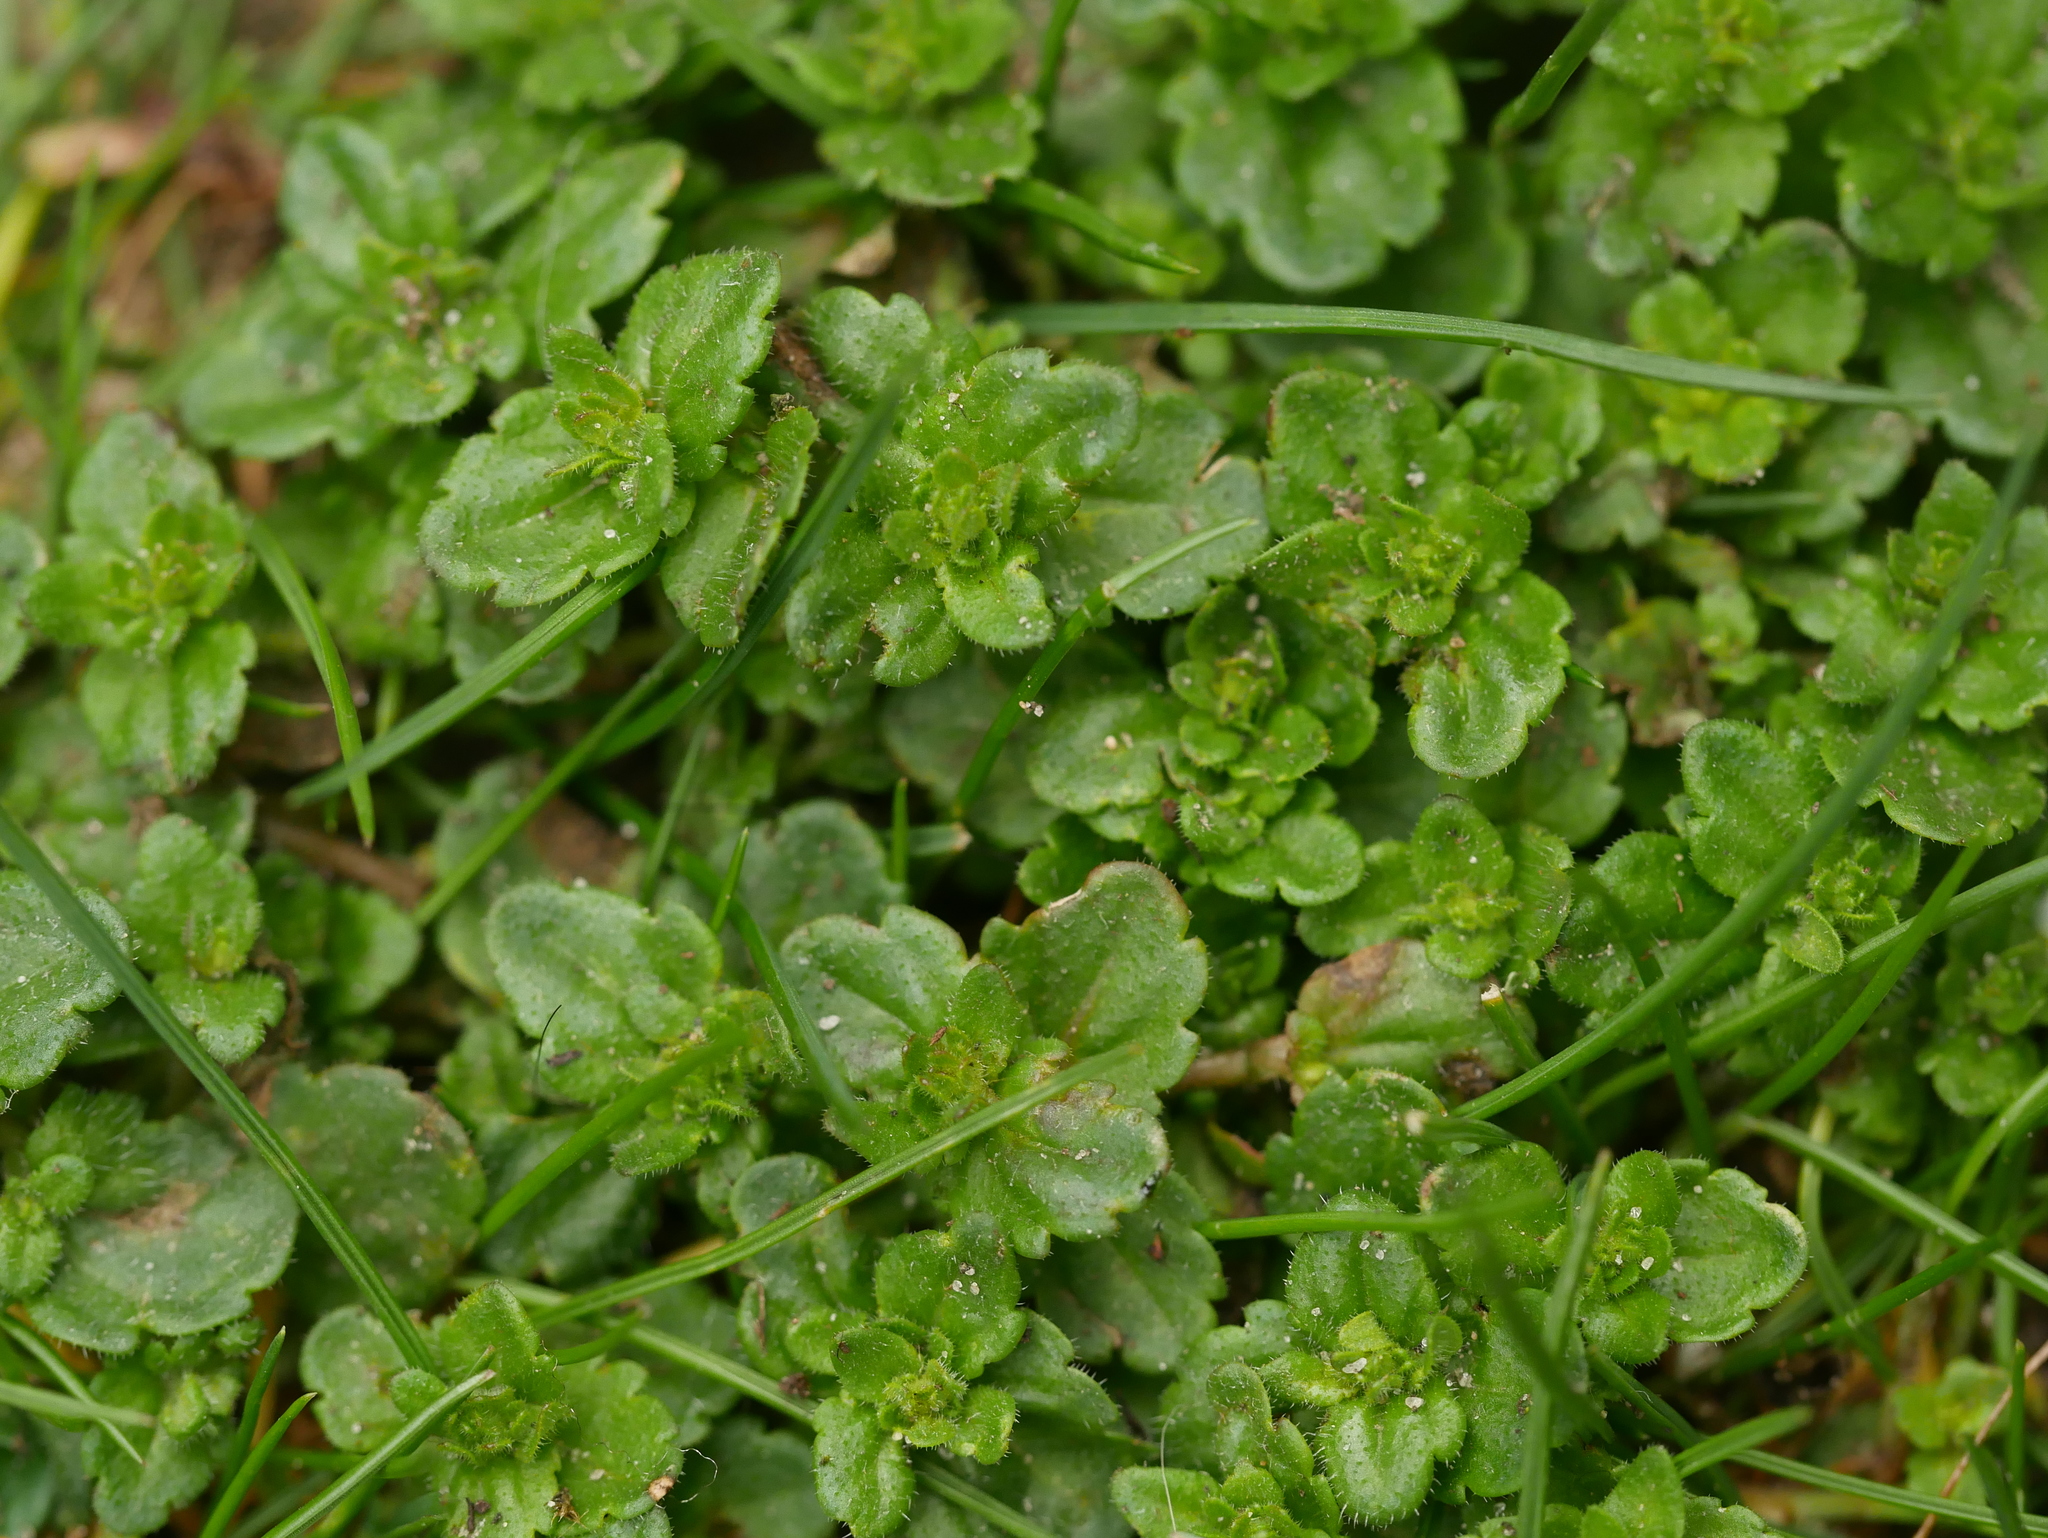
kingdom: Plantae
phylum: Tracheophyta
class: Magnoliopsida
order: Lamiales
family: Plantaginaceae
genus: Veronica
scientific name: Veronica arvensis
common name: Corn speedwell
